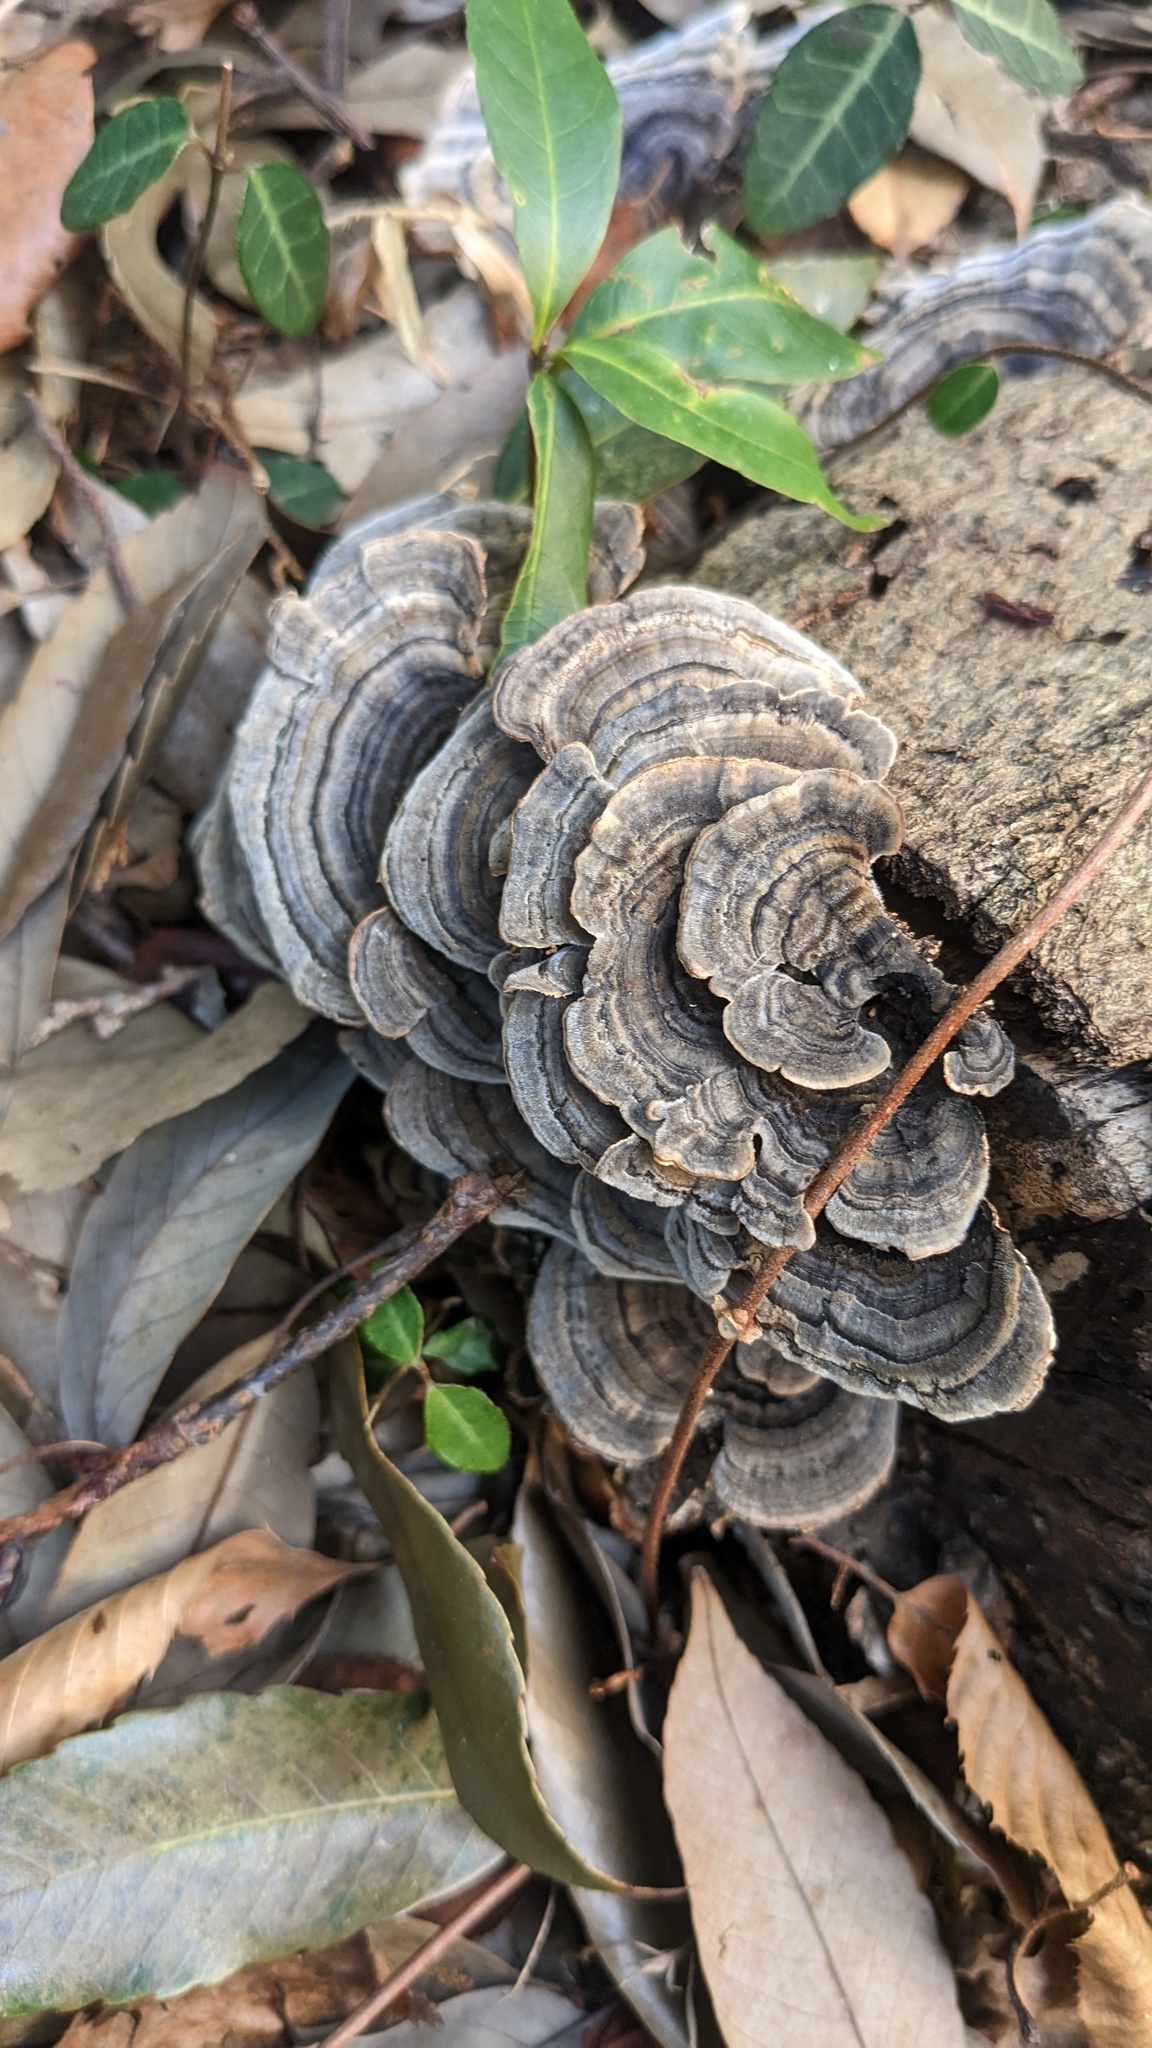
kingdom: Fungi
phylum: Basidiomycota
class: Agaricomycetes
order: Polyporales
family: Polyporaceae
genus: Trametes
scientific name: Trametes versicolor
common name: Turkeytail
